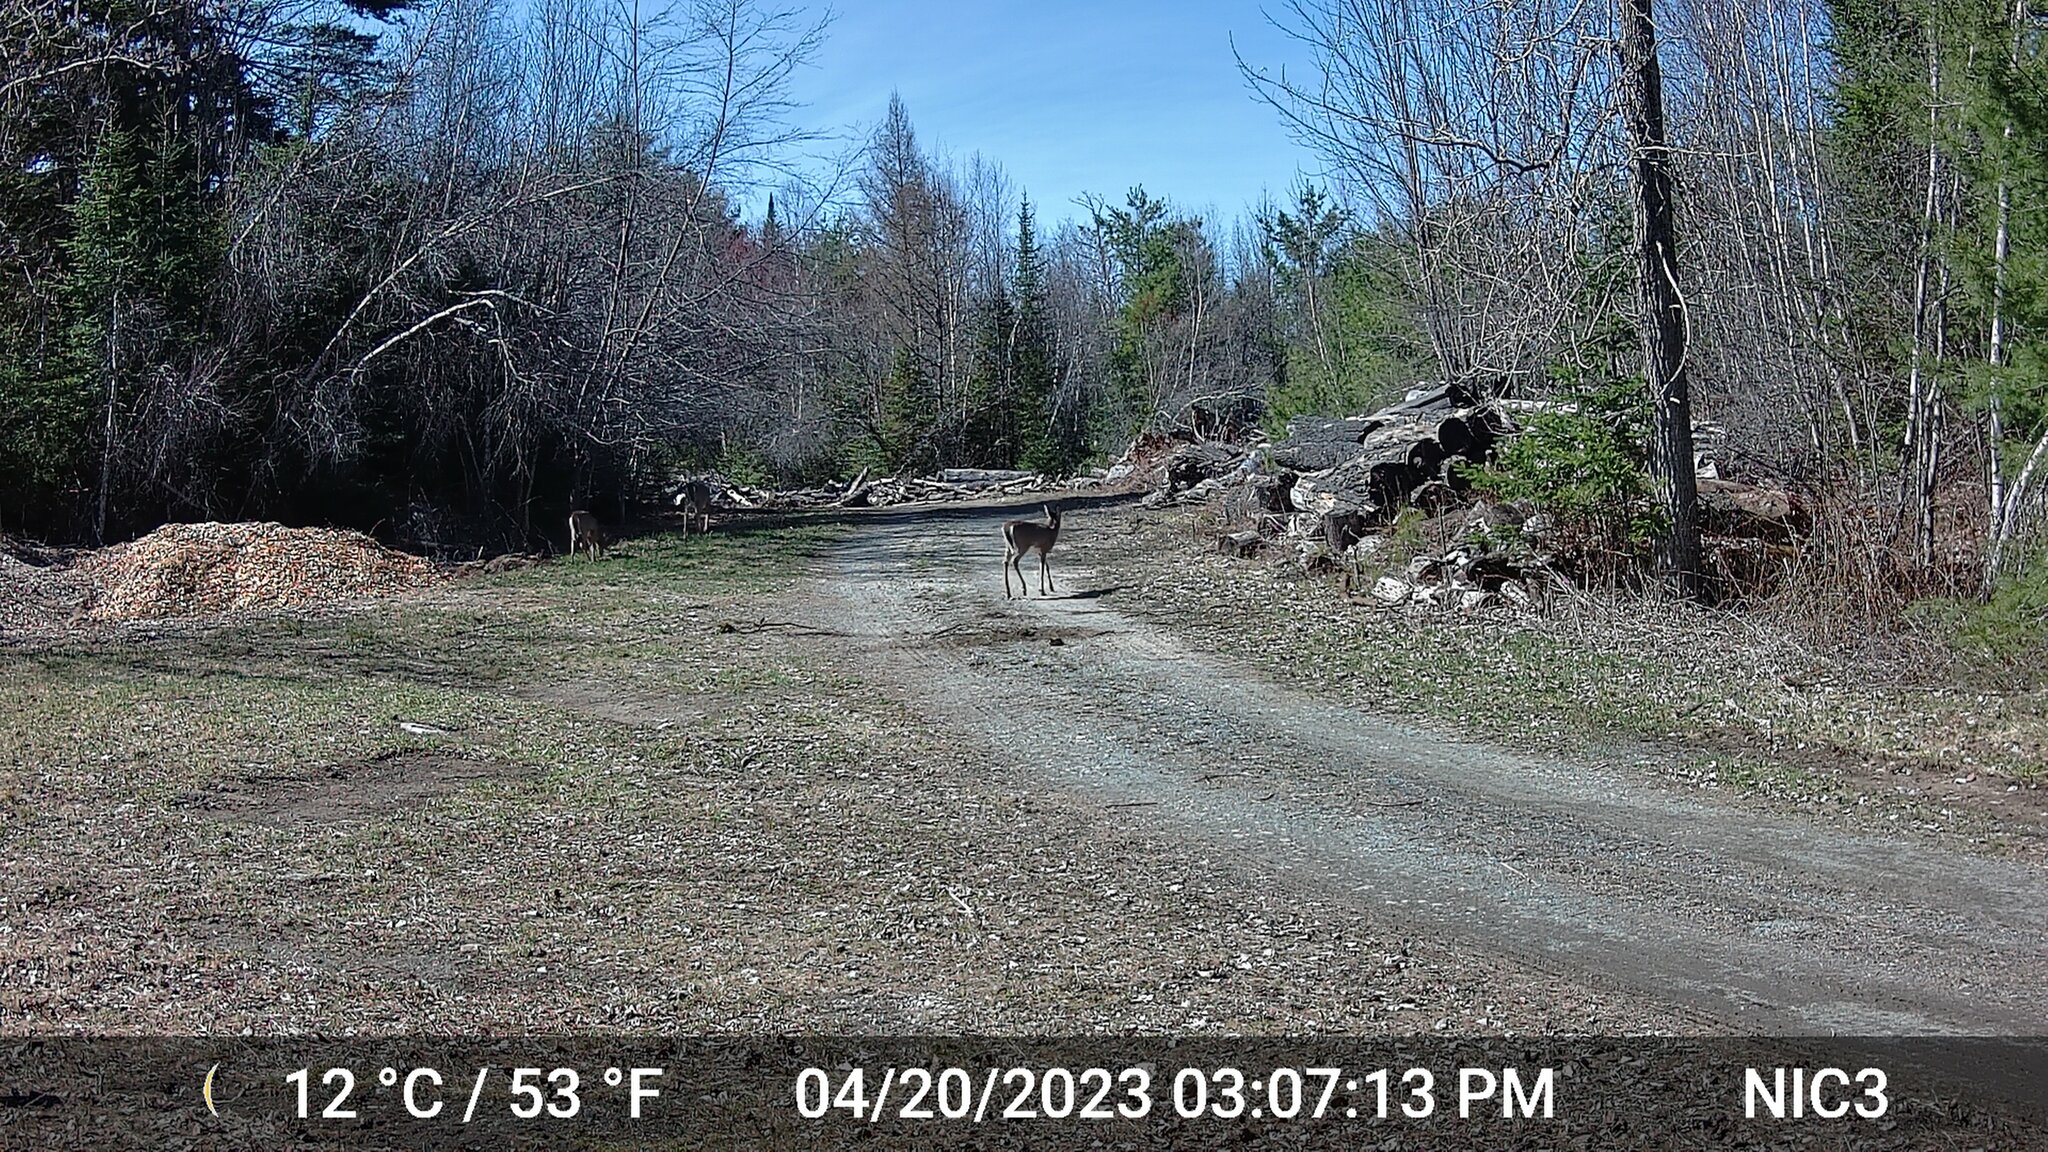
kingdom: Animalia
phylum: Chordata
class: Mammalia
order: Artiodactyla
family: Cervidae
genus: Odocoileus
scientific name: Odocoileus virginianus
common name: White-tailed deer
